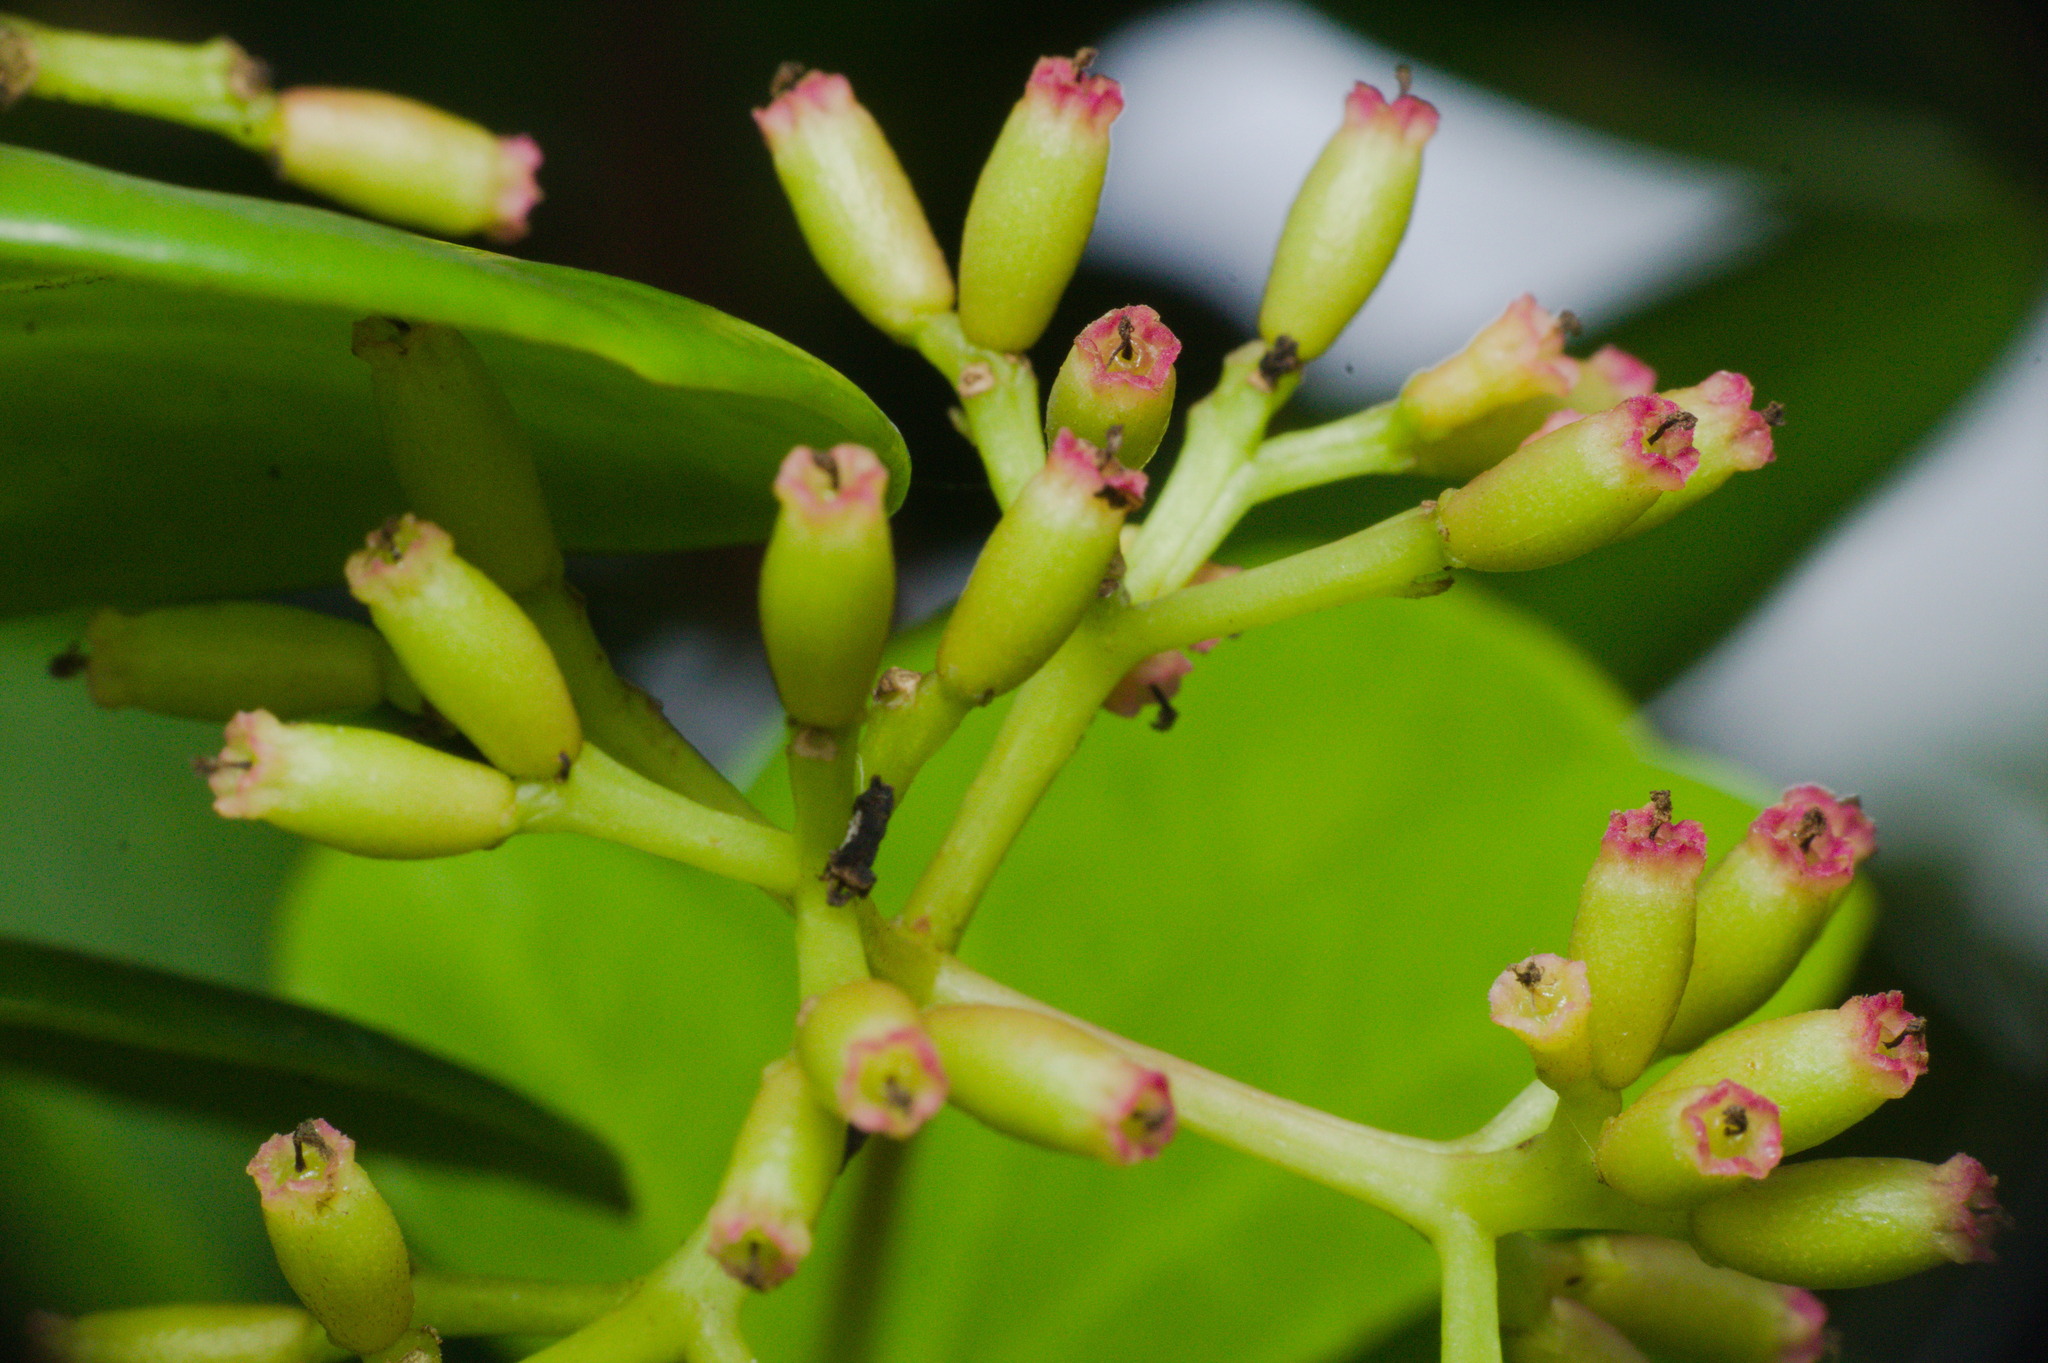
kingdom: Plantae
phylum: Tracheophyta
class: Magnoliopsida
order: Caryophyllales
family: Nyctaginaceae
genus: Guapira
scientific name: Guapira opposita
